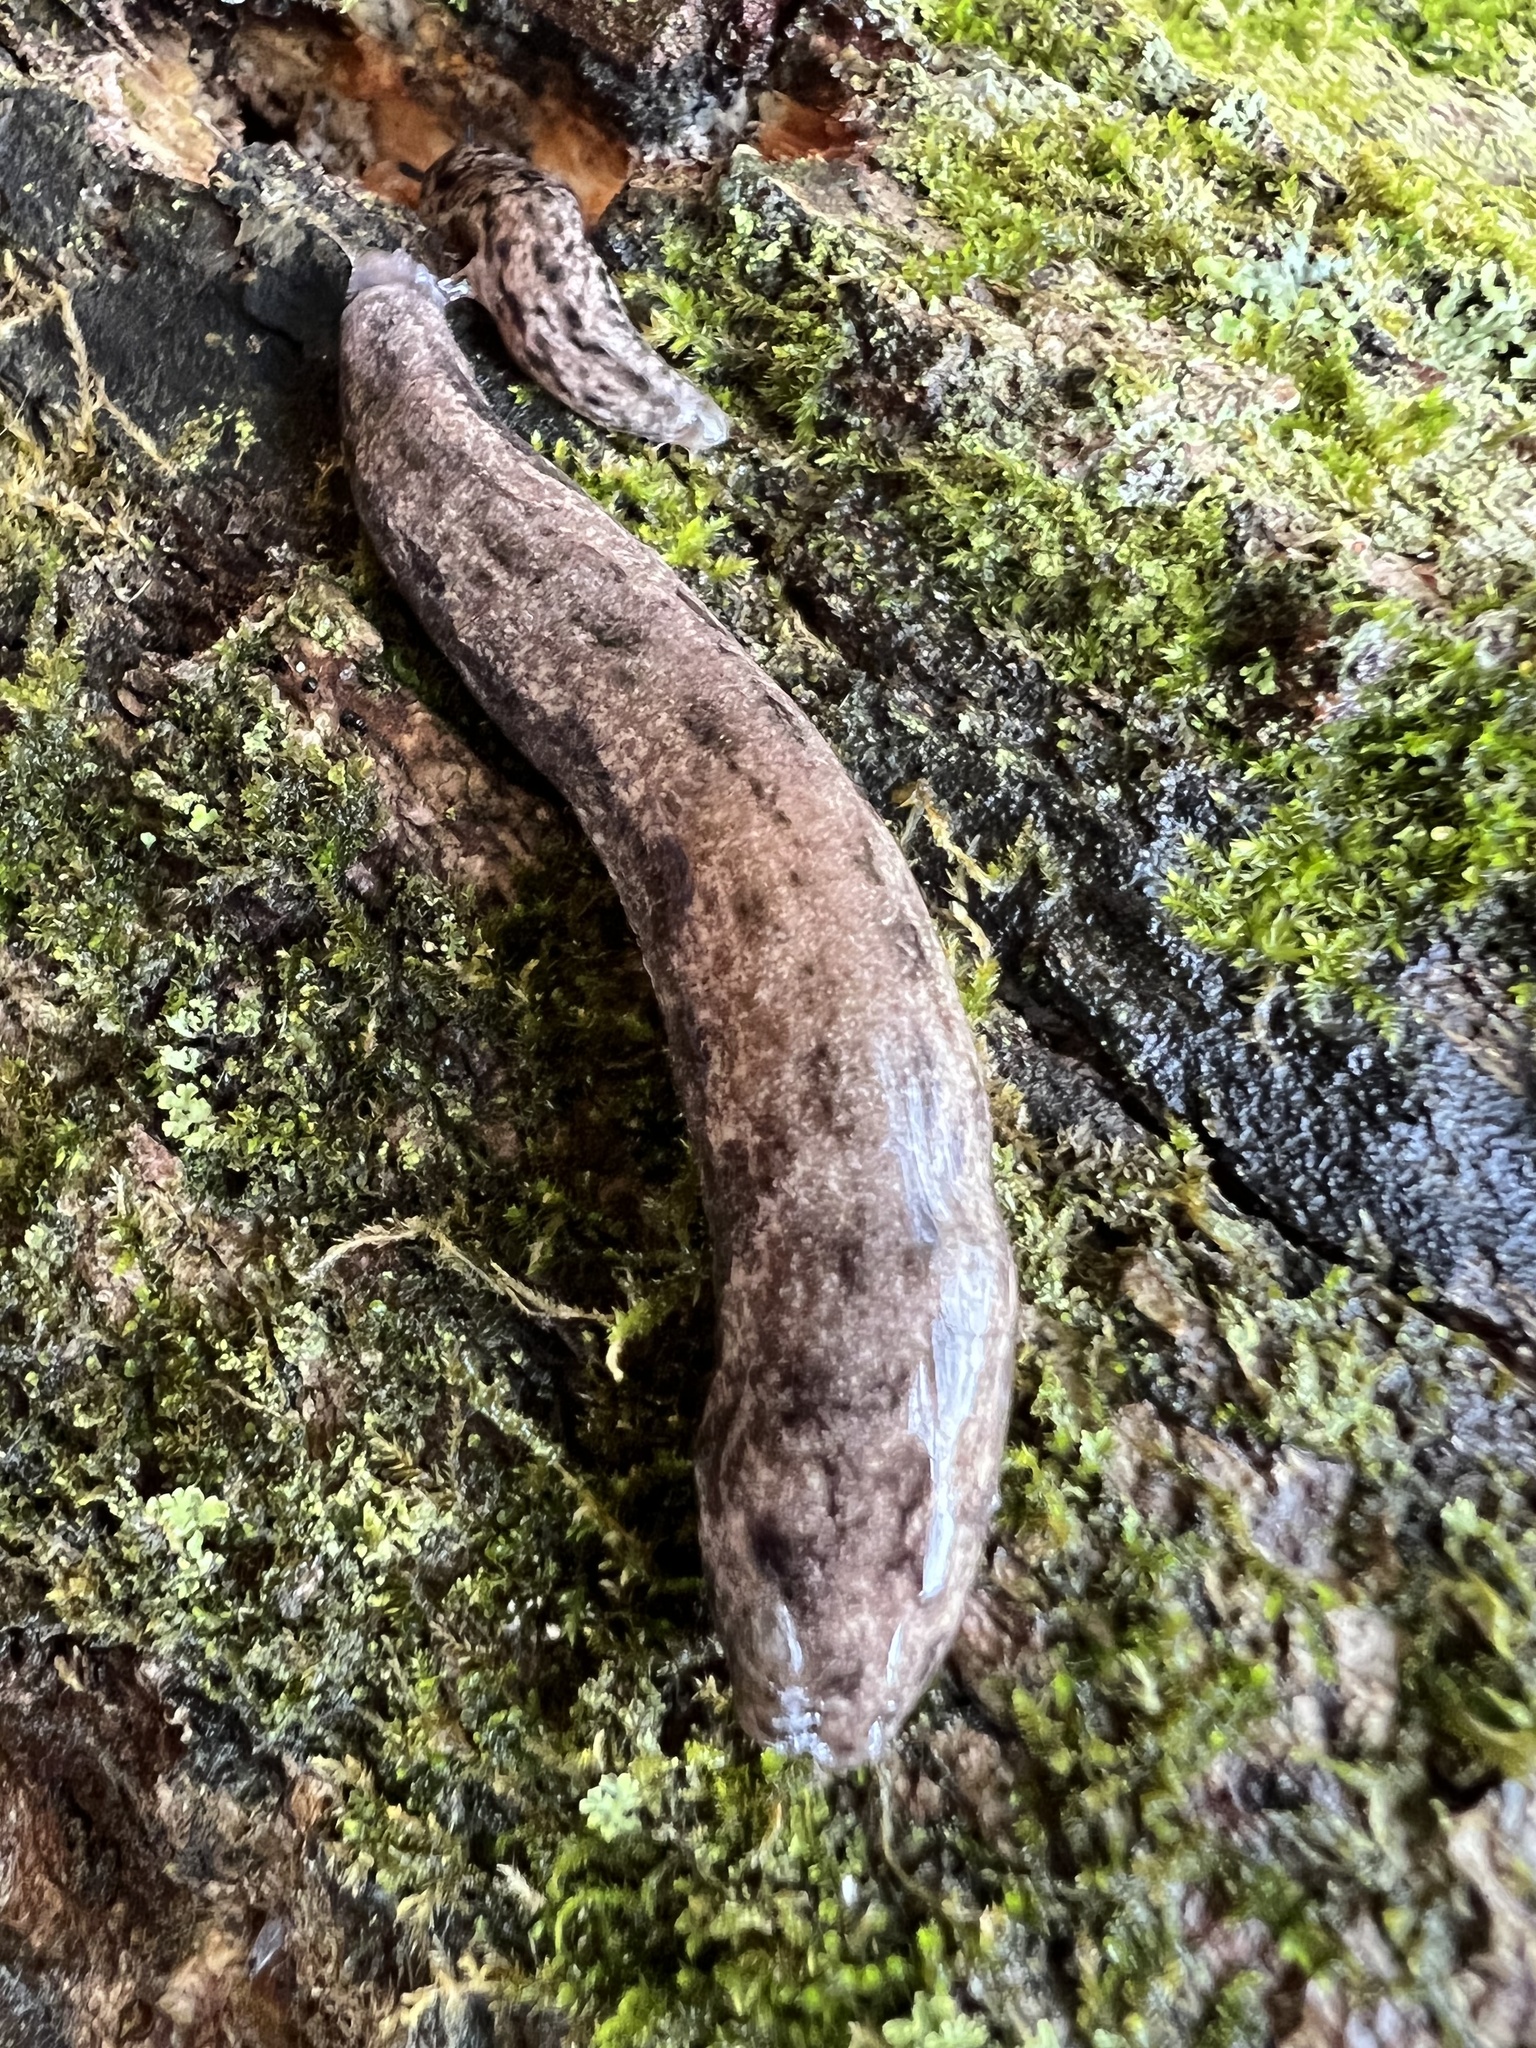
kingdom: Animalia
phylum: Mollusca
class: Gastropoda
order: Stylommatophora
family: Philomycidae
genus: Megapallifera
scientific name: Megapallifera mutabilis
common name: Changeable mantleslug
